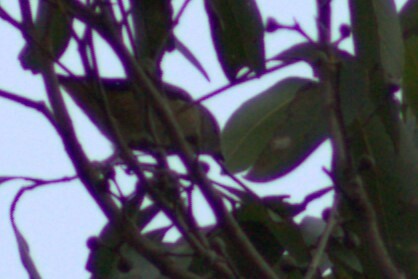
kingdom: Animalia
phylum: Chordata
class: Aves
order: Passeriformes
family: Pardalotidae
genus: Pardalotus
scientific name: Pardalotus punctatus
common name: Spotted pardalote
